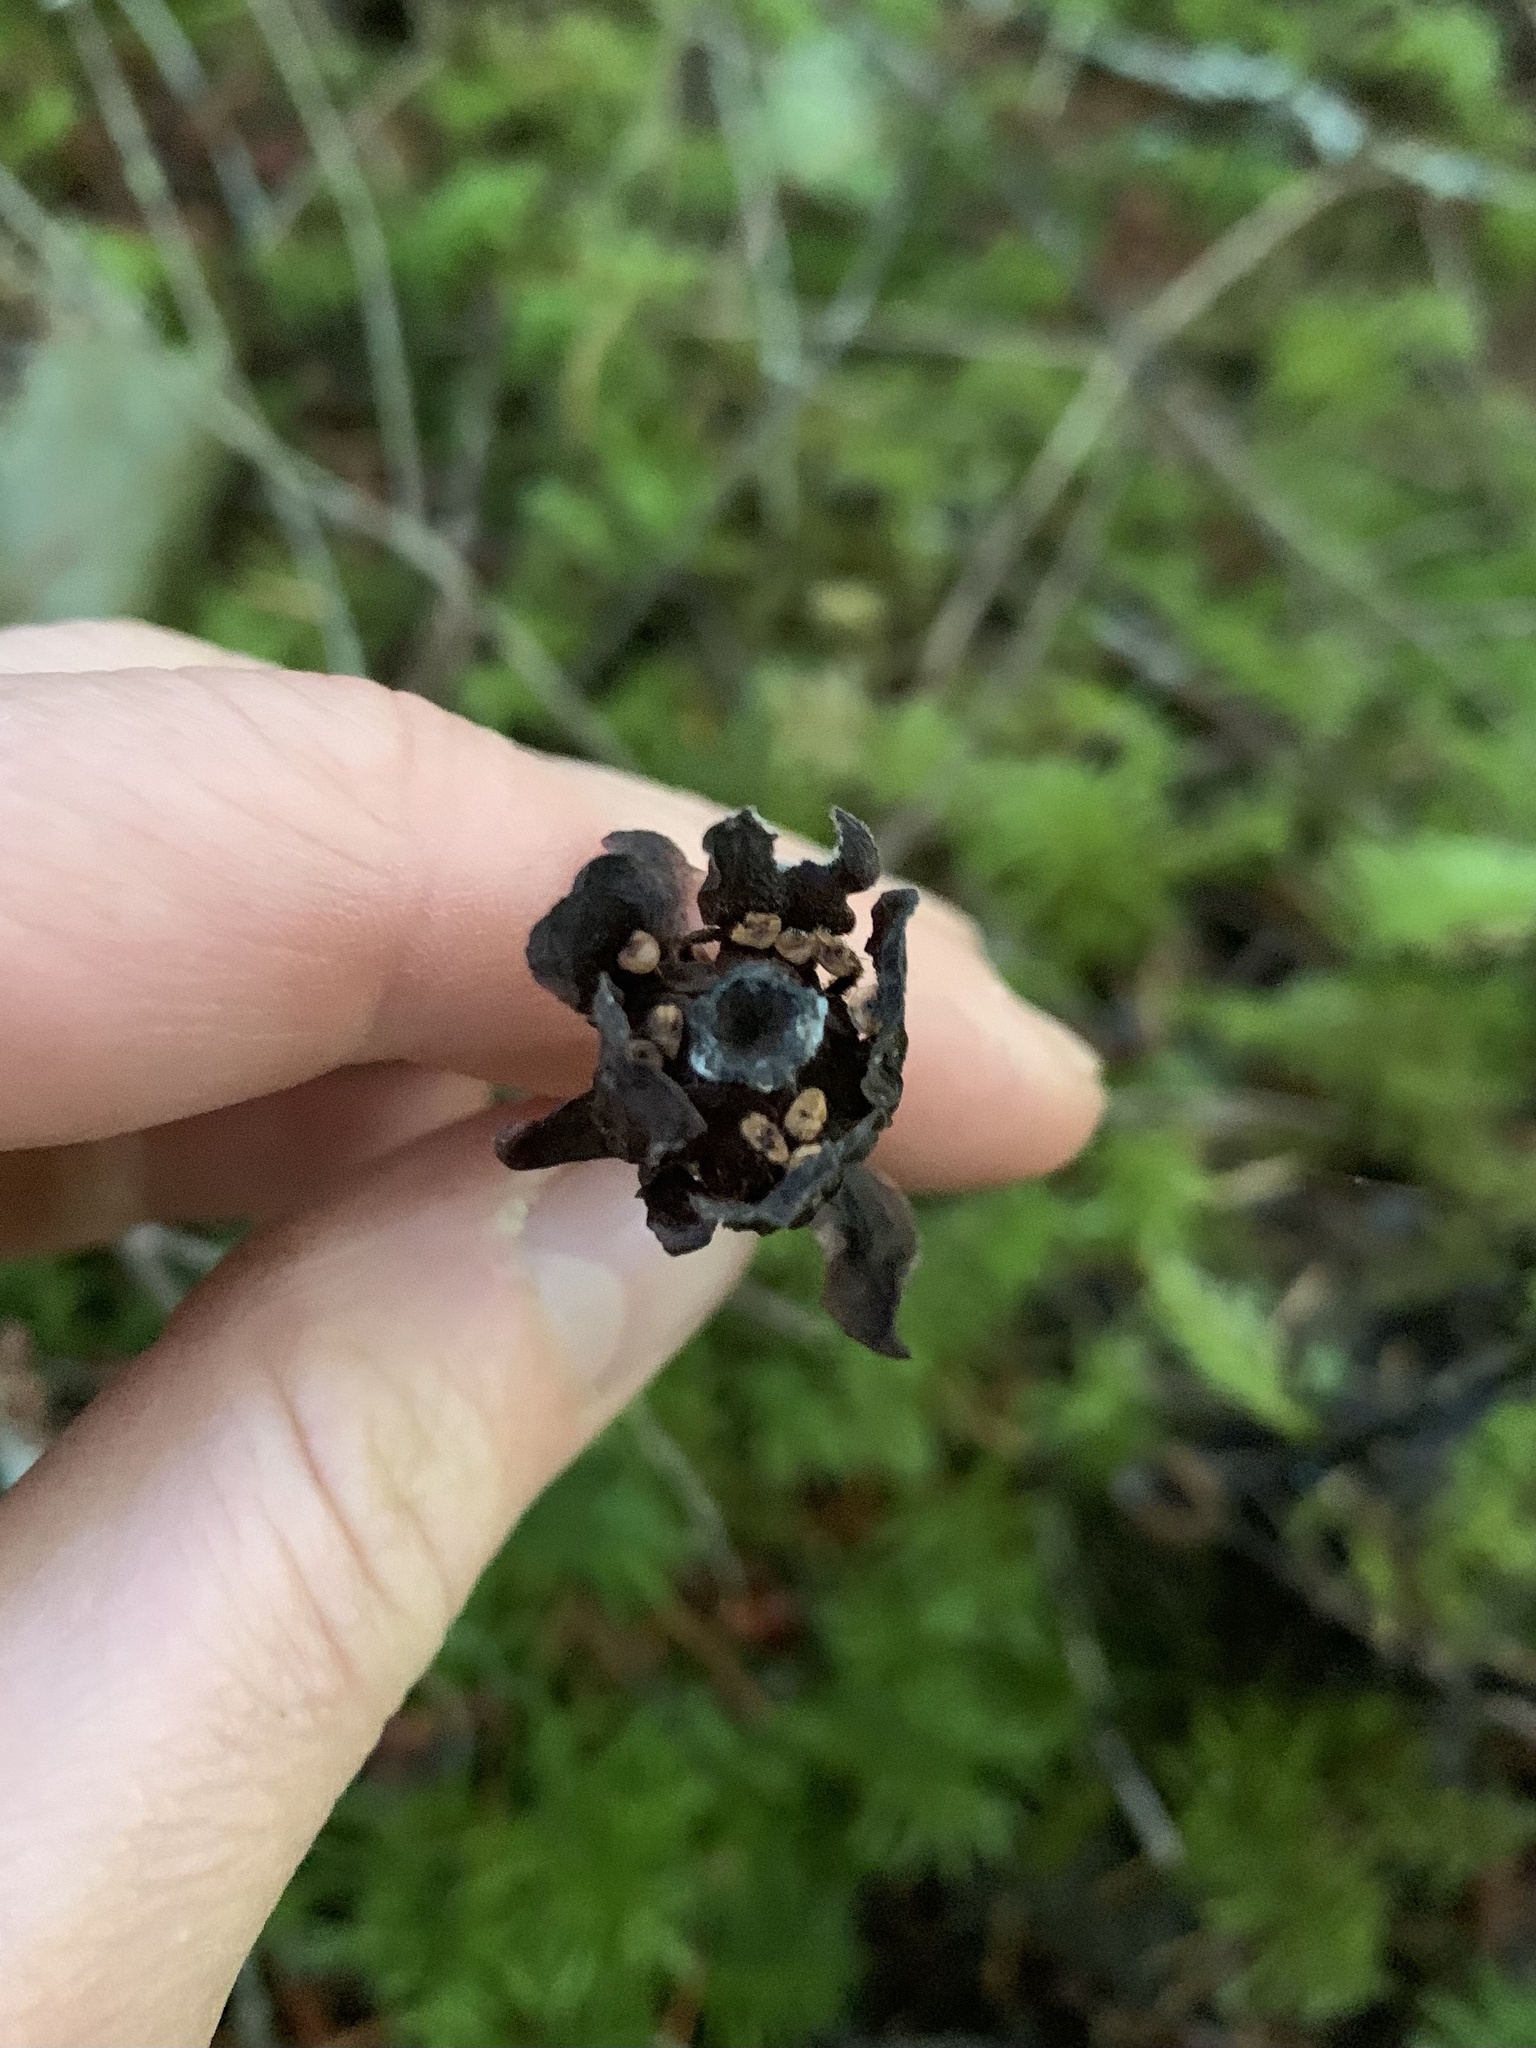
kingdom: Plantae
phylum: Tracheophyta
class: Magnoliopsida
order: Ericales
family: Ericaceae
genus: Monotropa
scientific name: Monotropa uniflora
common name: Convulsion root
